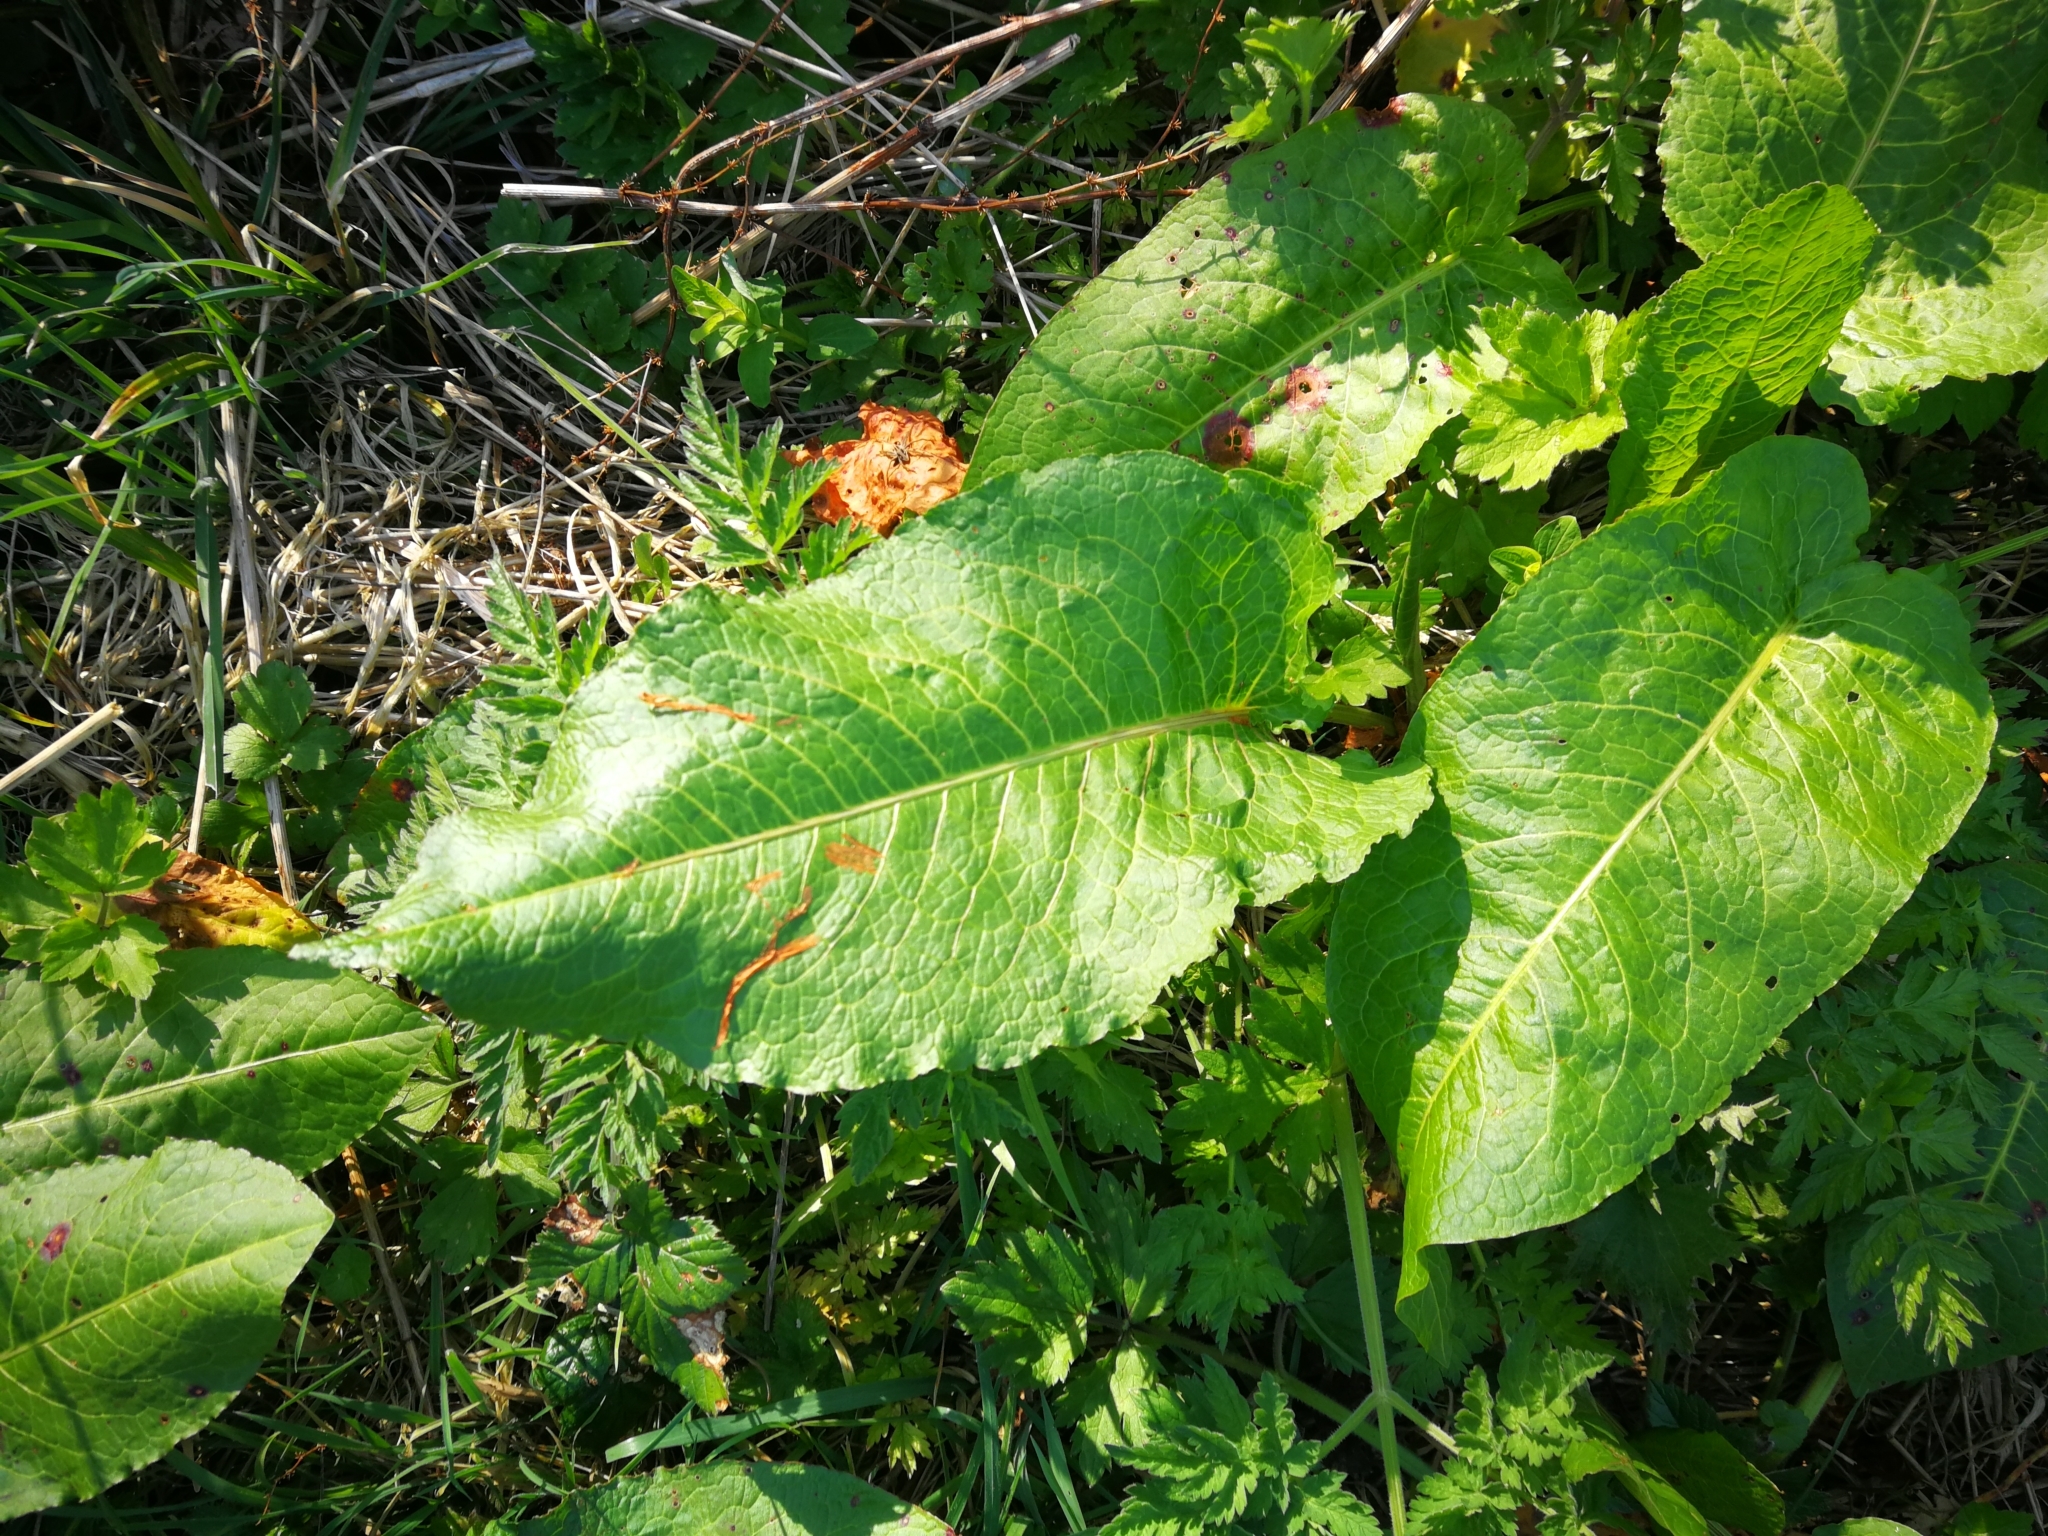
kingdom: Plantae
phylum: Tracheophyta
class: Magnoliopsida
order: Caryophyllales
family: Polygonaceae
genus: Rumex
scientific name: Rumex obtusifolius
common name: Bitter dock
